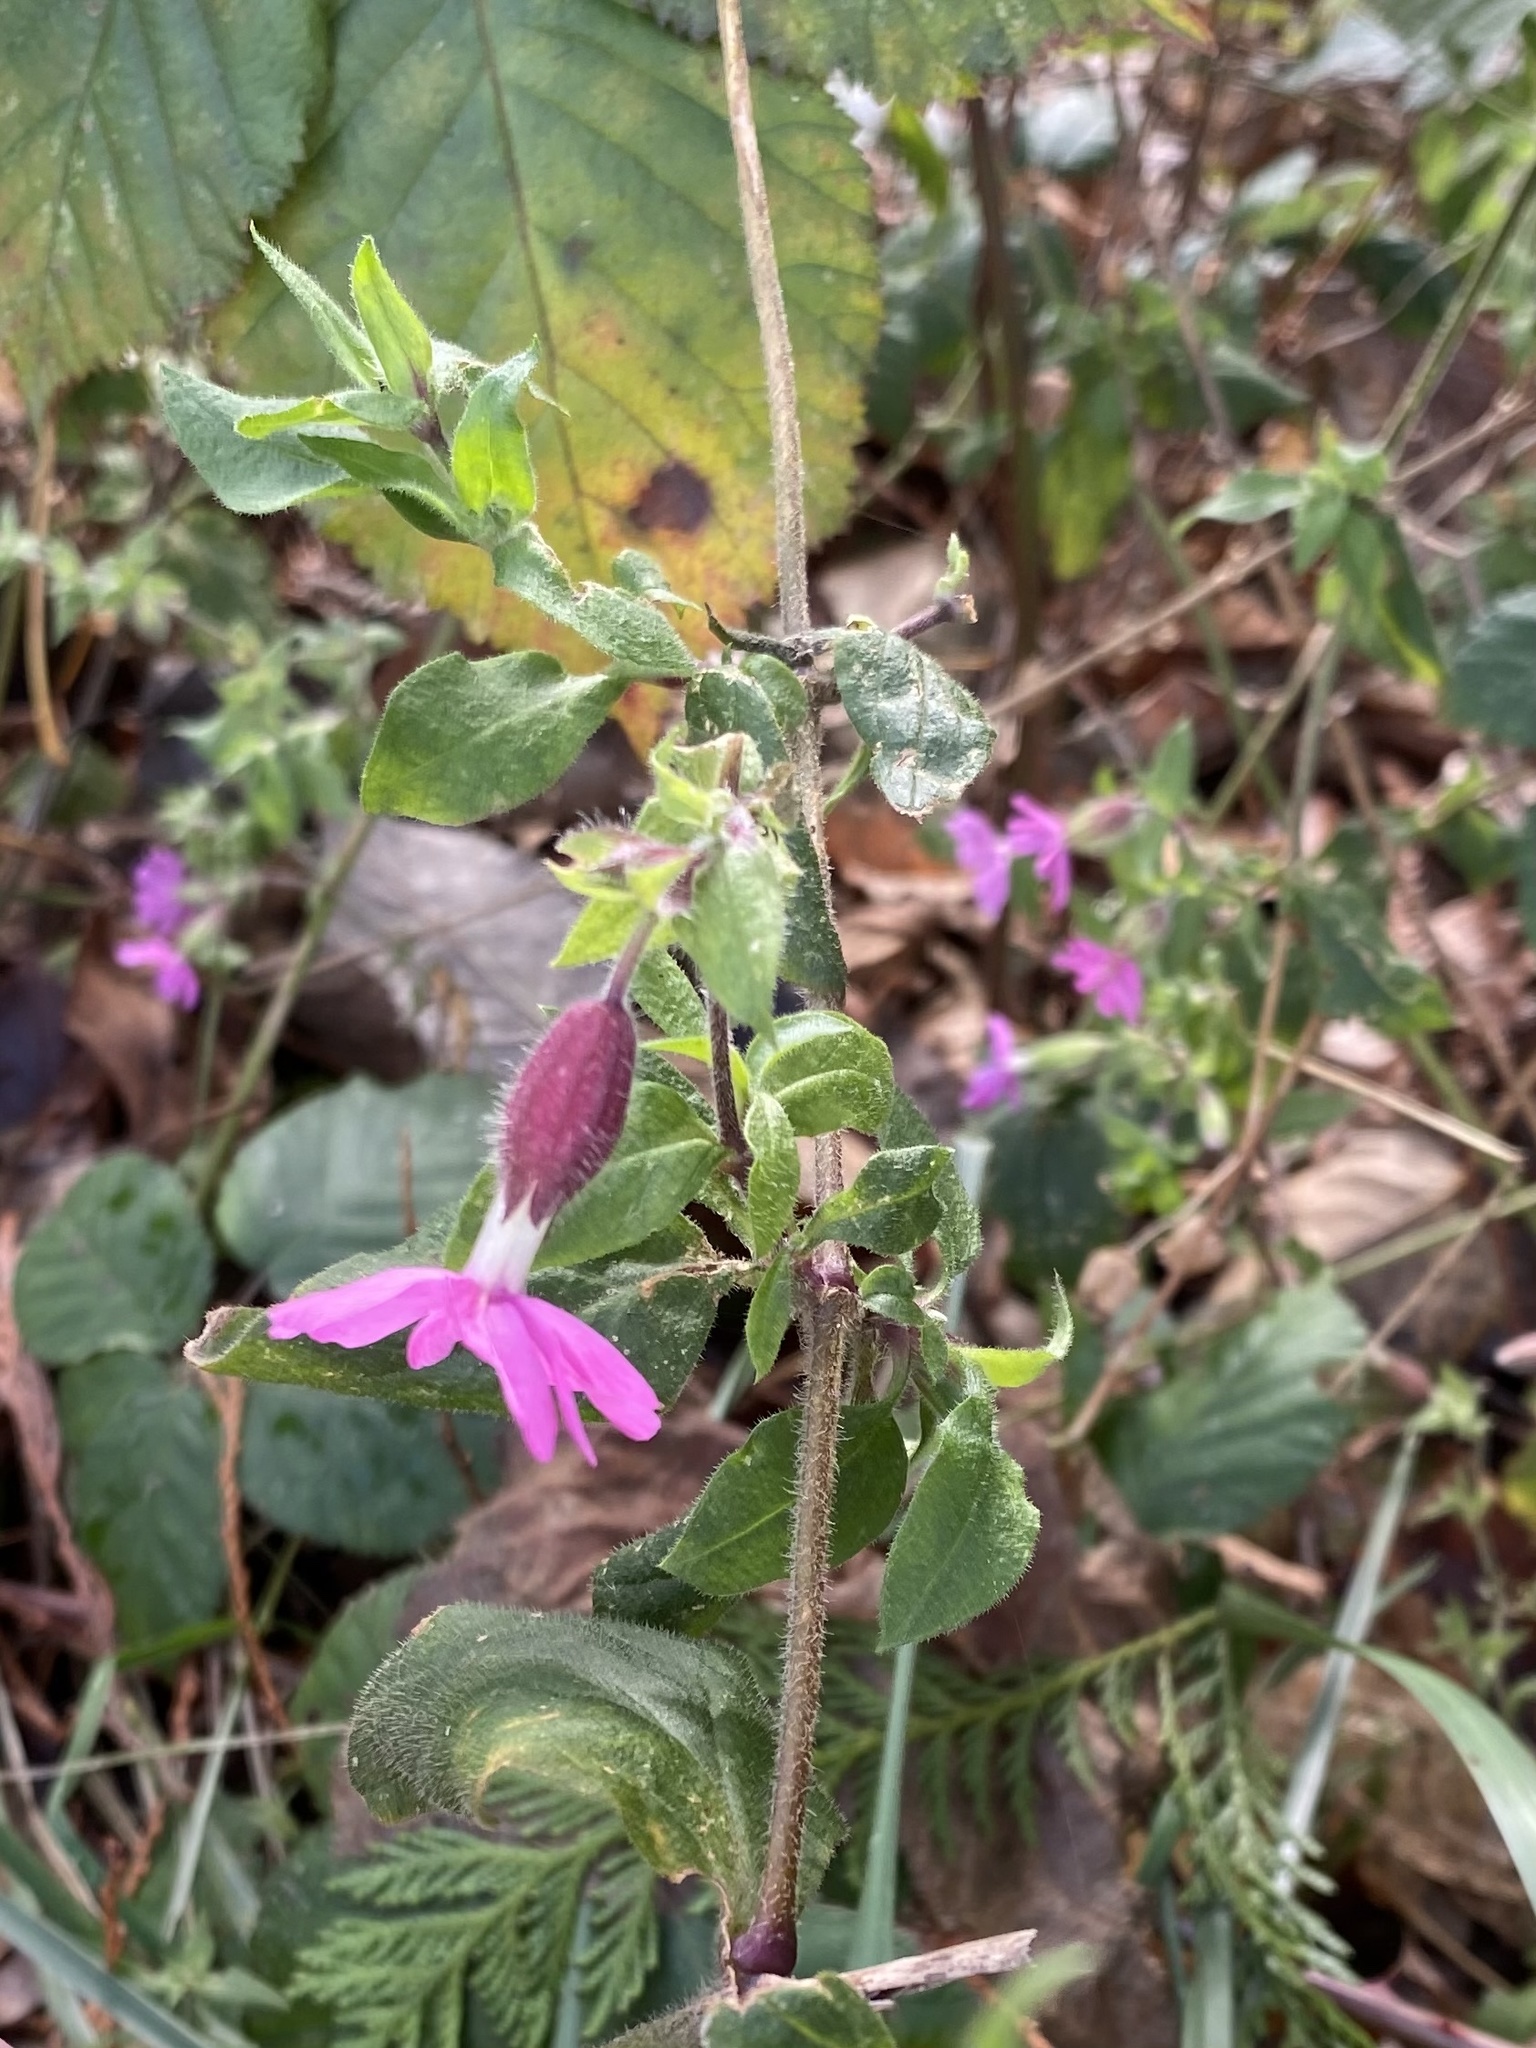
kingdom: Plantae
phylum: Tracheophyta
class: Magnoliopsida
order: Caryophyllales
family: Caryophyllaceae
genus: Silene
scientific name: Silene dioica
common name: Red campion
